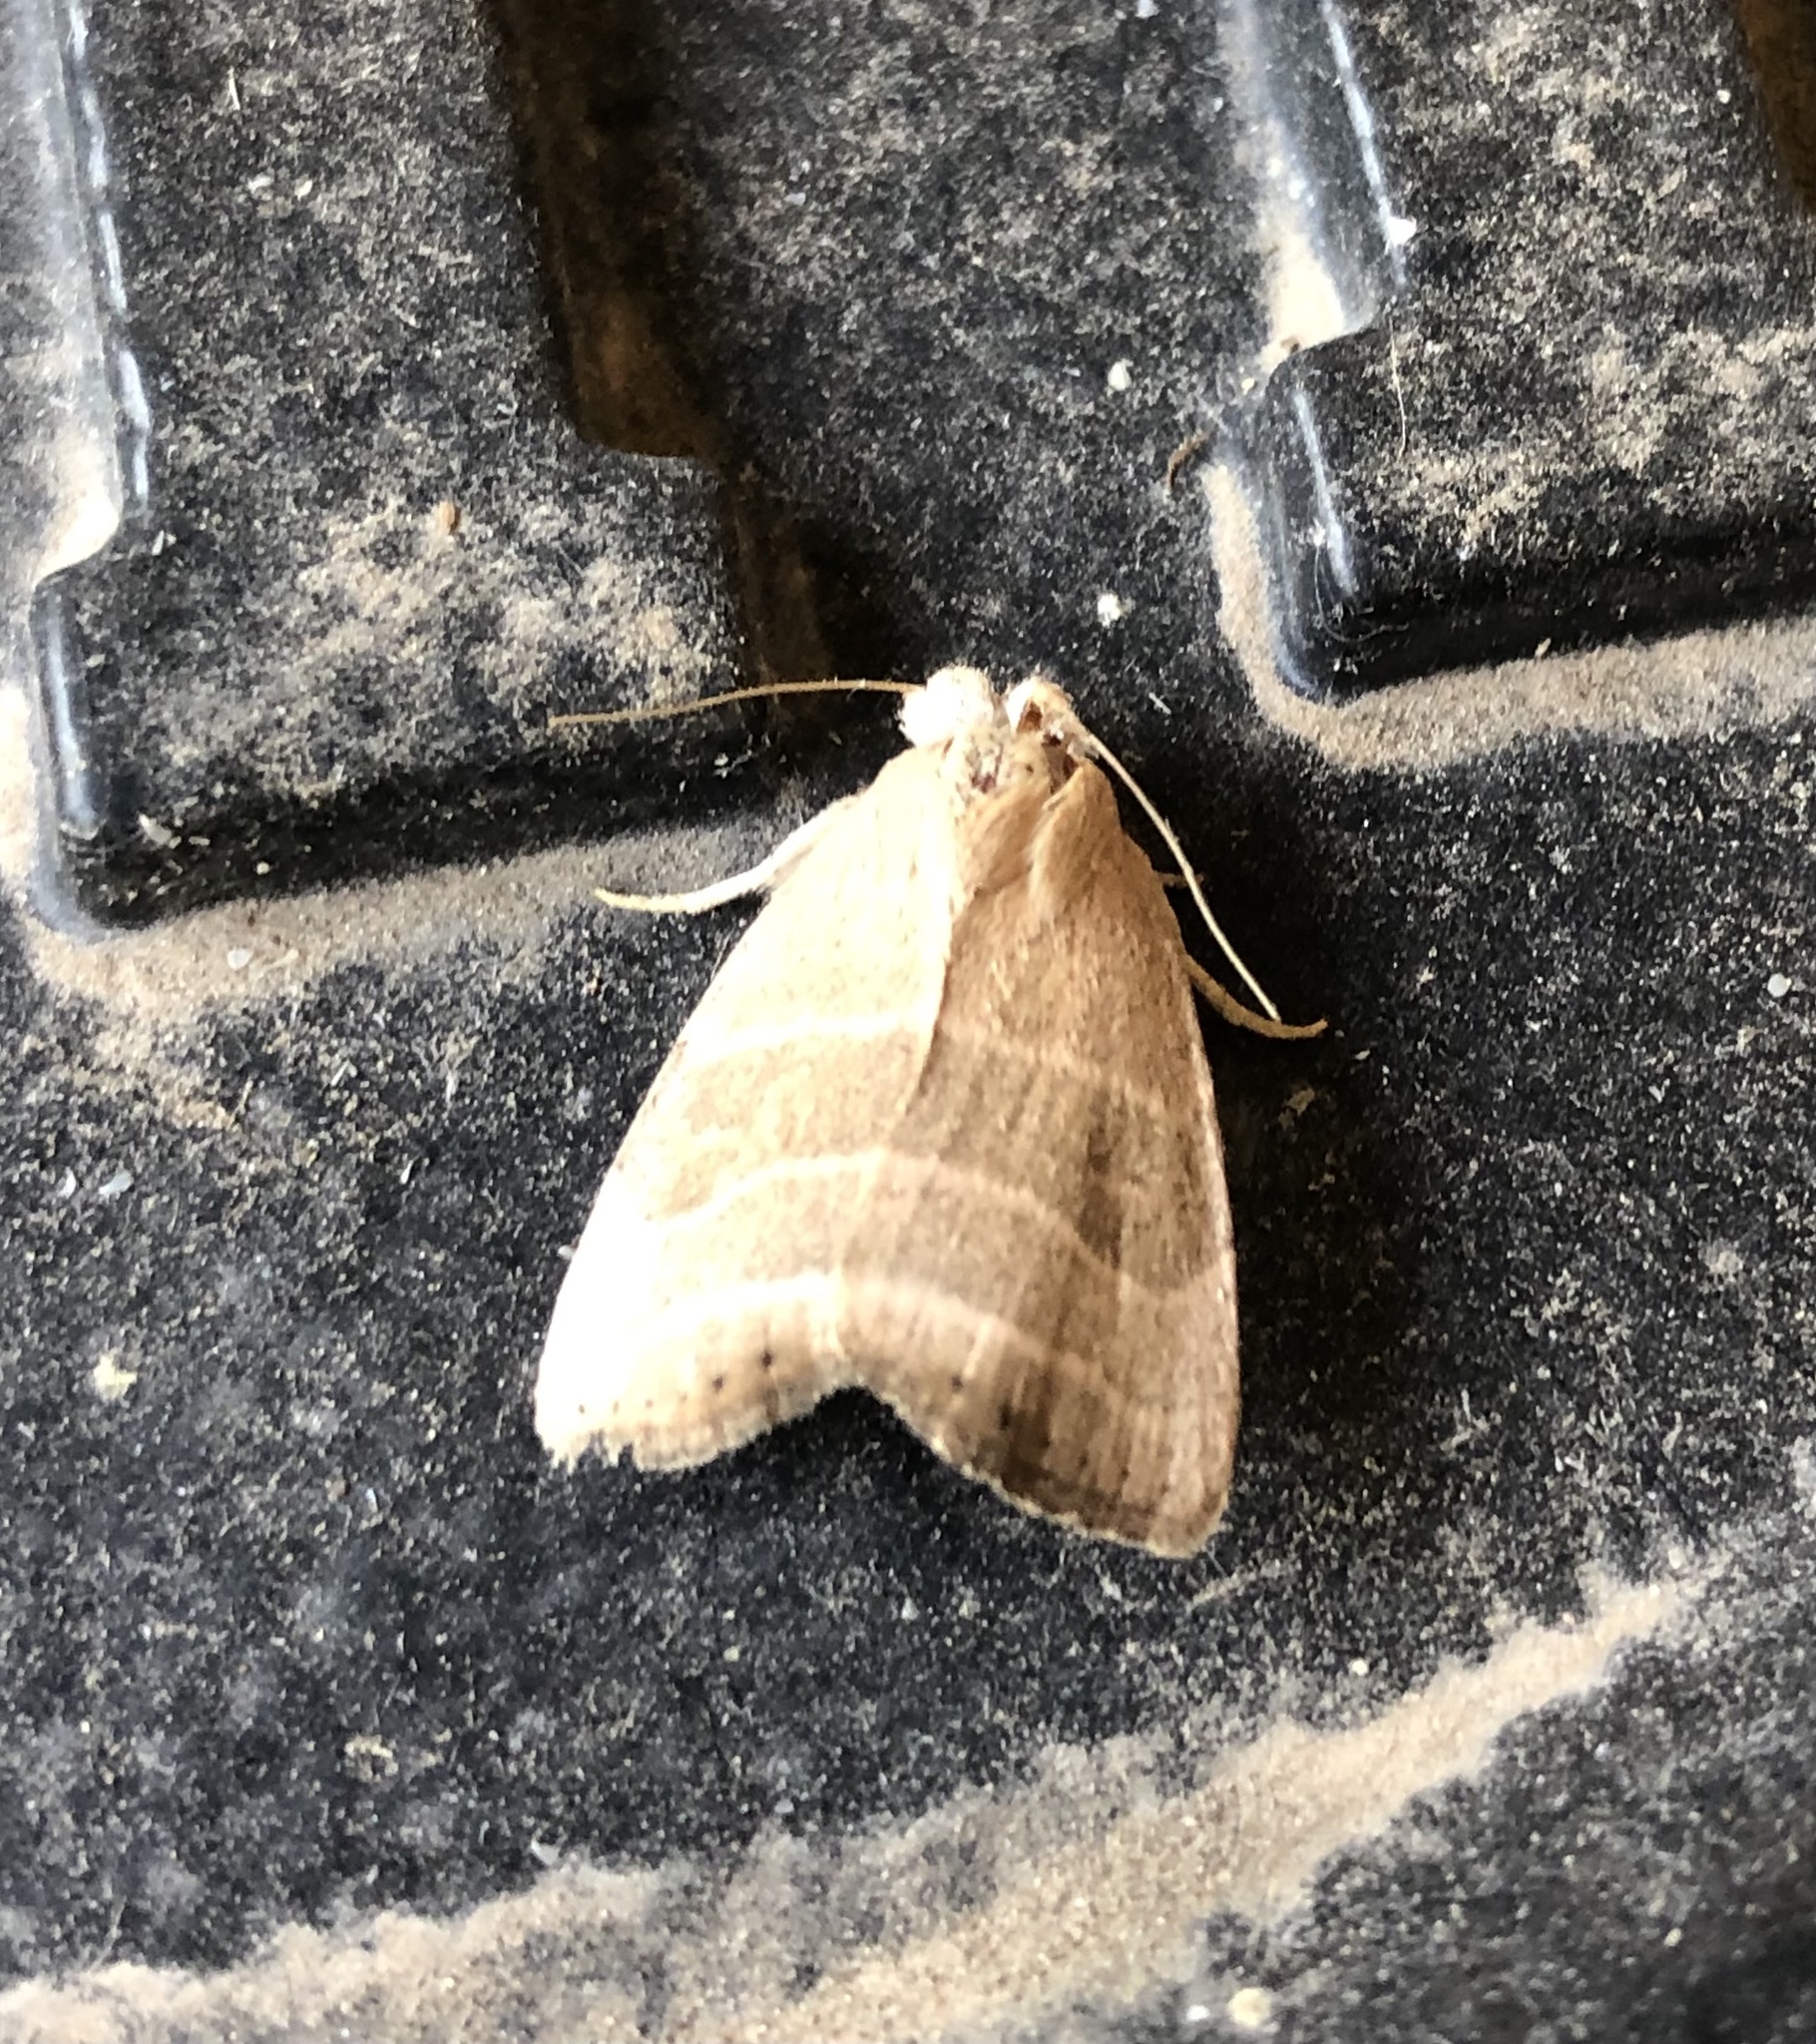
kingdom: Animalia
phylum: Arthropoda
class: Insecta
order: Lepidoptera
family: Noctuidae
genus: Bagisara
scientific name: Bagisara rectifascia
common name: Straight lined mallow moth
